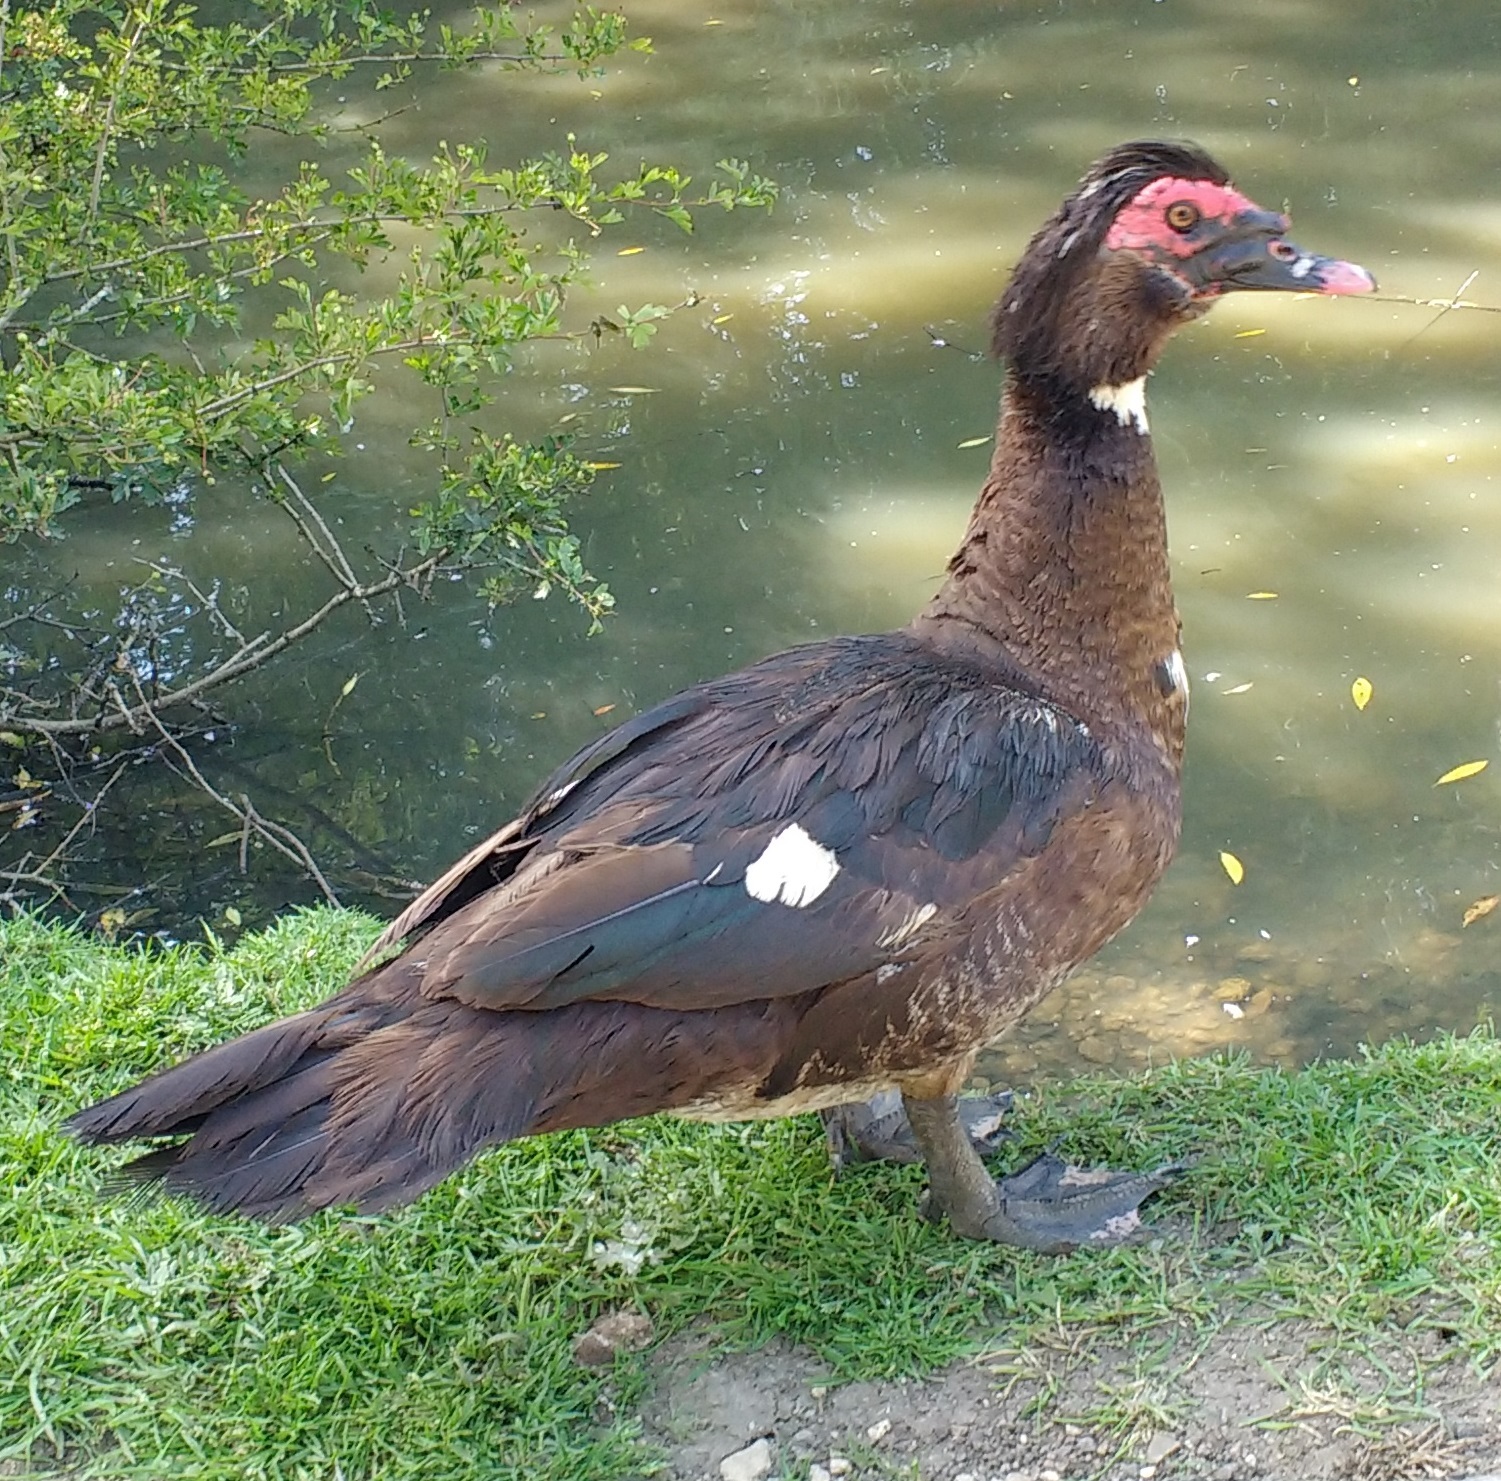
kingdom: Animalia
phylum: Chordata
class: Aves
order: Anseriformes
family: Anatidae
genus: Cairina
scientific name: Cairina moschata
